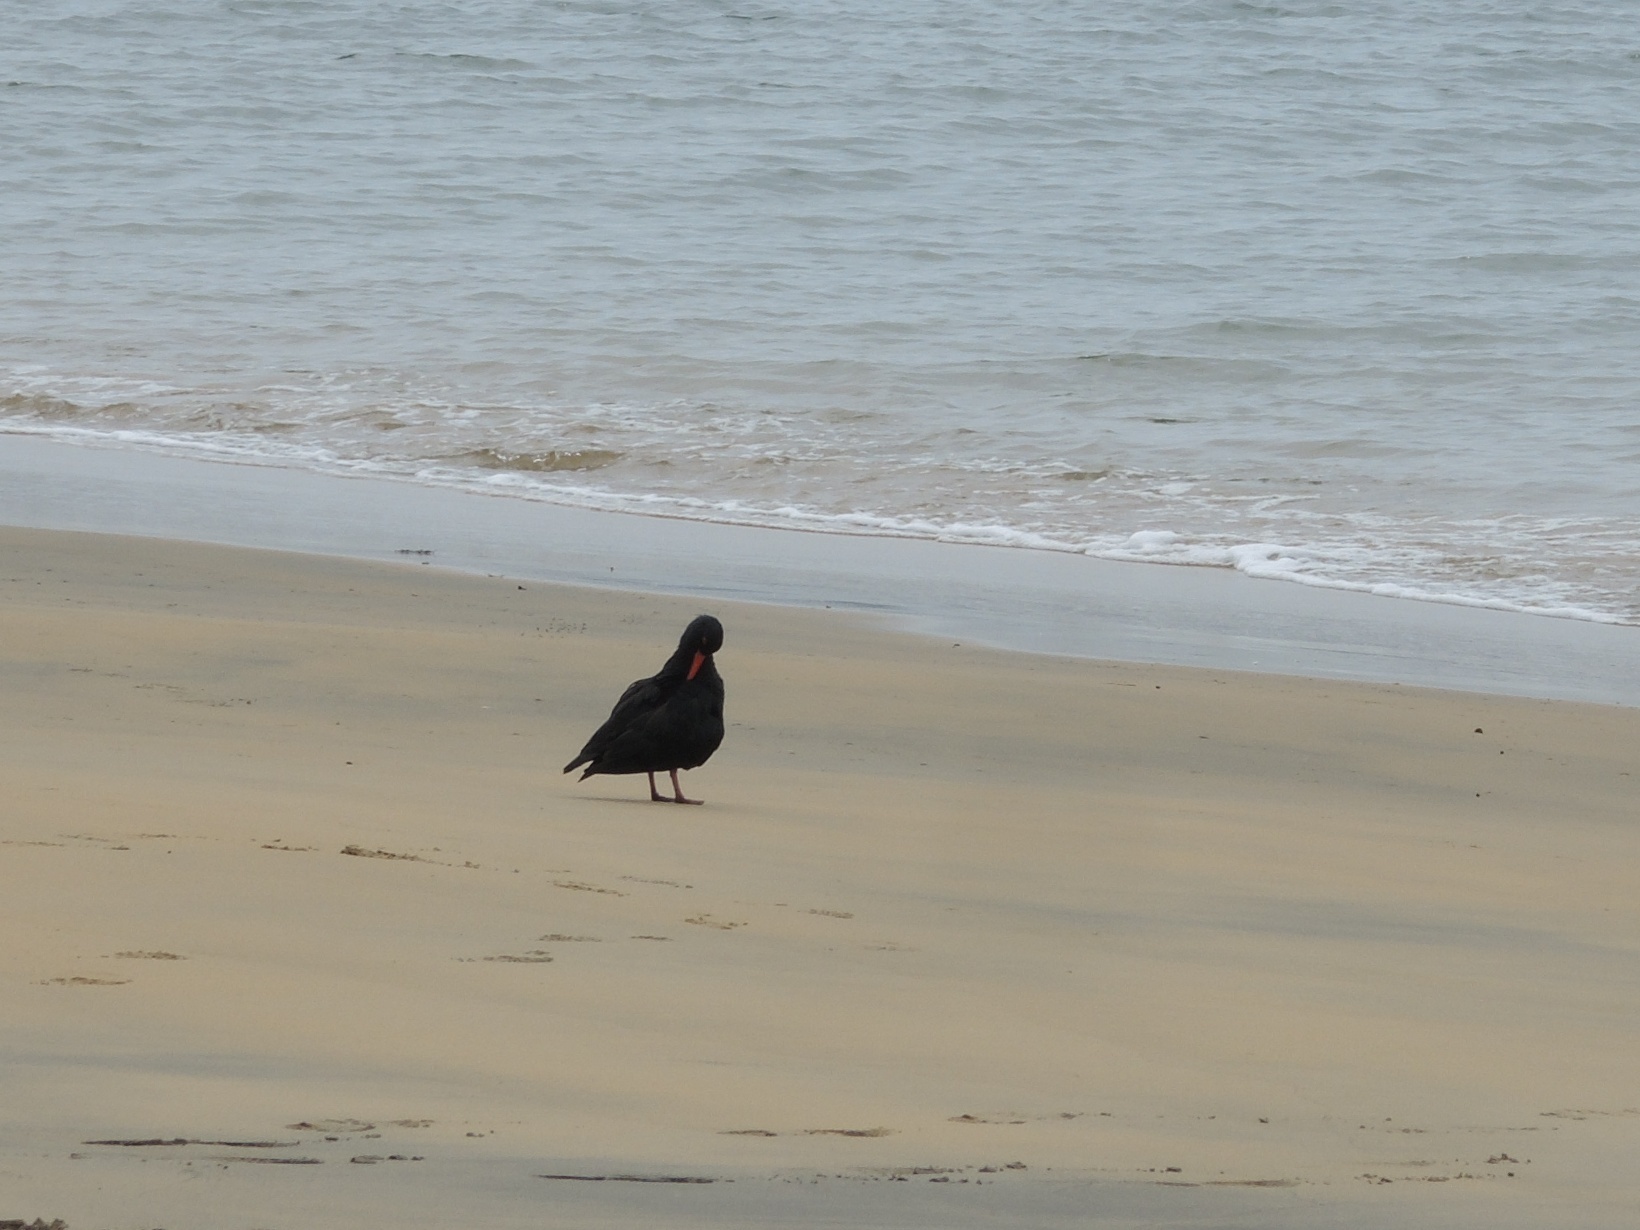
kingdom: Animalia
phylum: Chordata
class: Aves
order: Charadriiformes
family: Haematopodidae
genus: Haematopus
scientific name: Haematopus unicolor
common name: Variable oystercatcher
